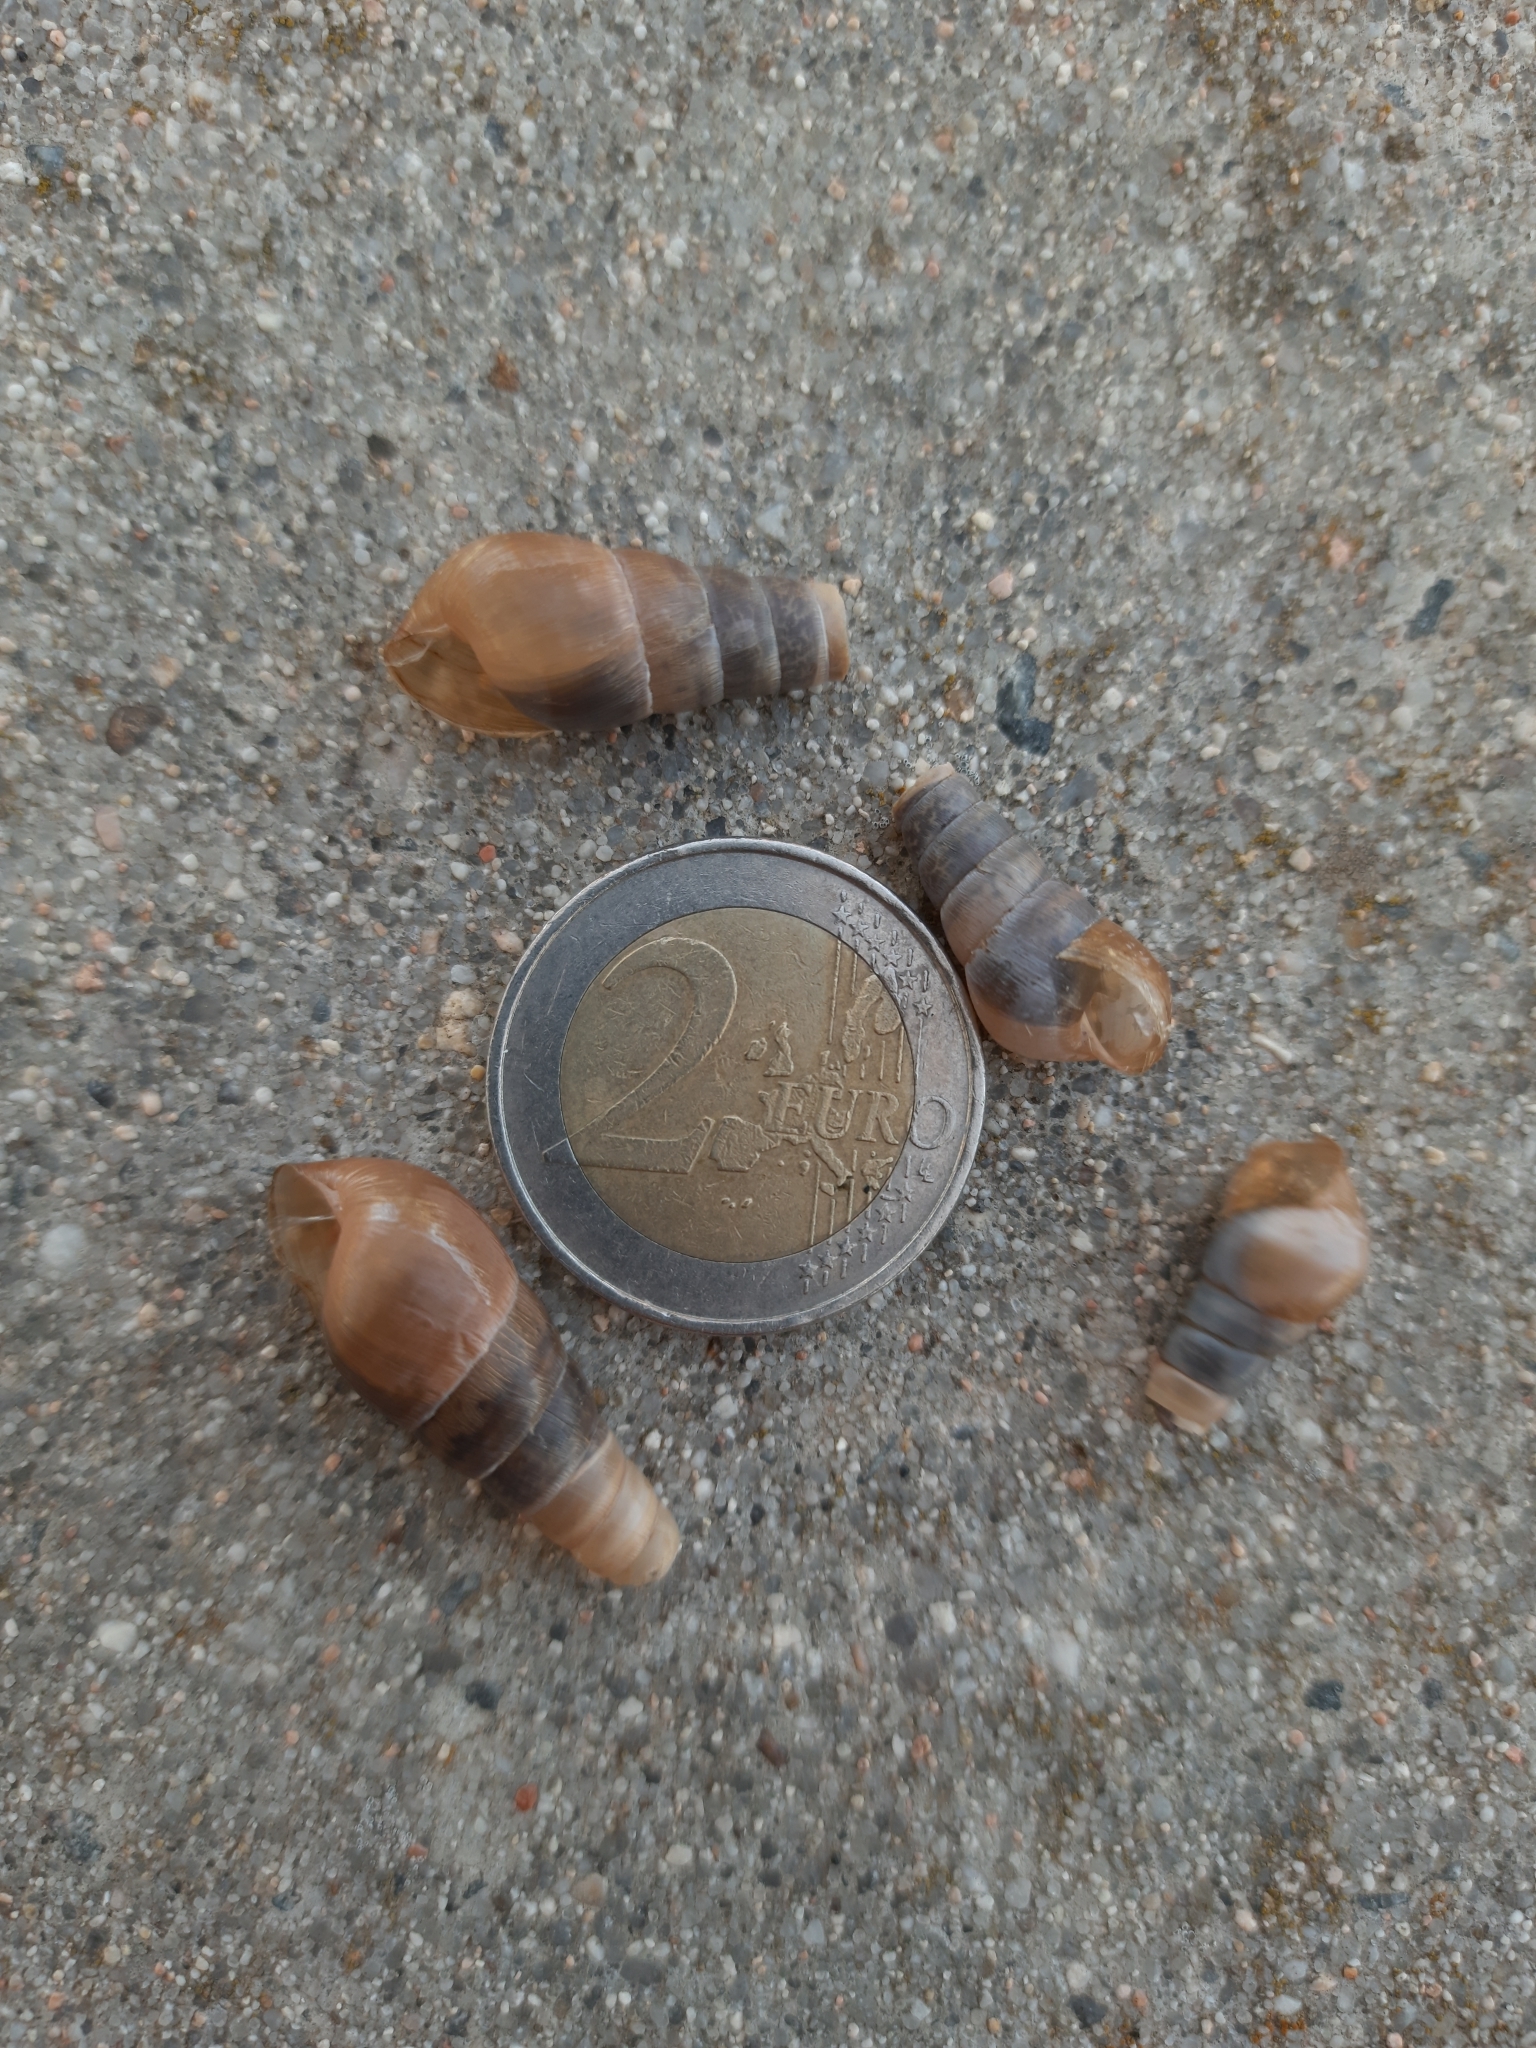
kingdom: Animalia
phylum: Mollusca
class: Gastropoda
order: Stylommatophora
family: Achatinidae
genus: Rumina
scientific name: Rumina decollata
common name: Decollate snail
